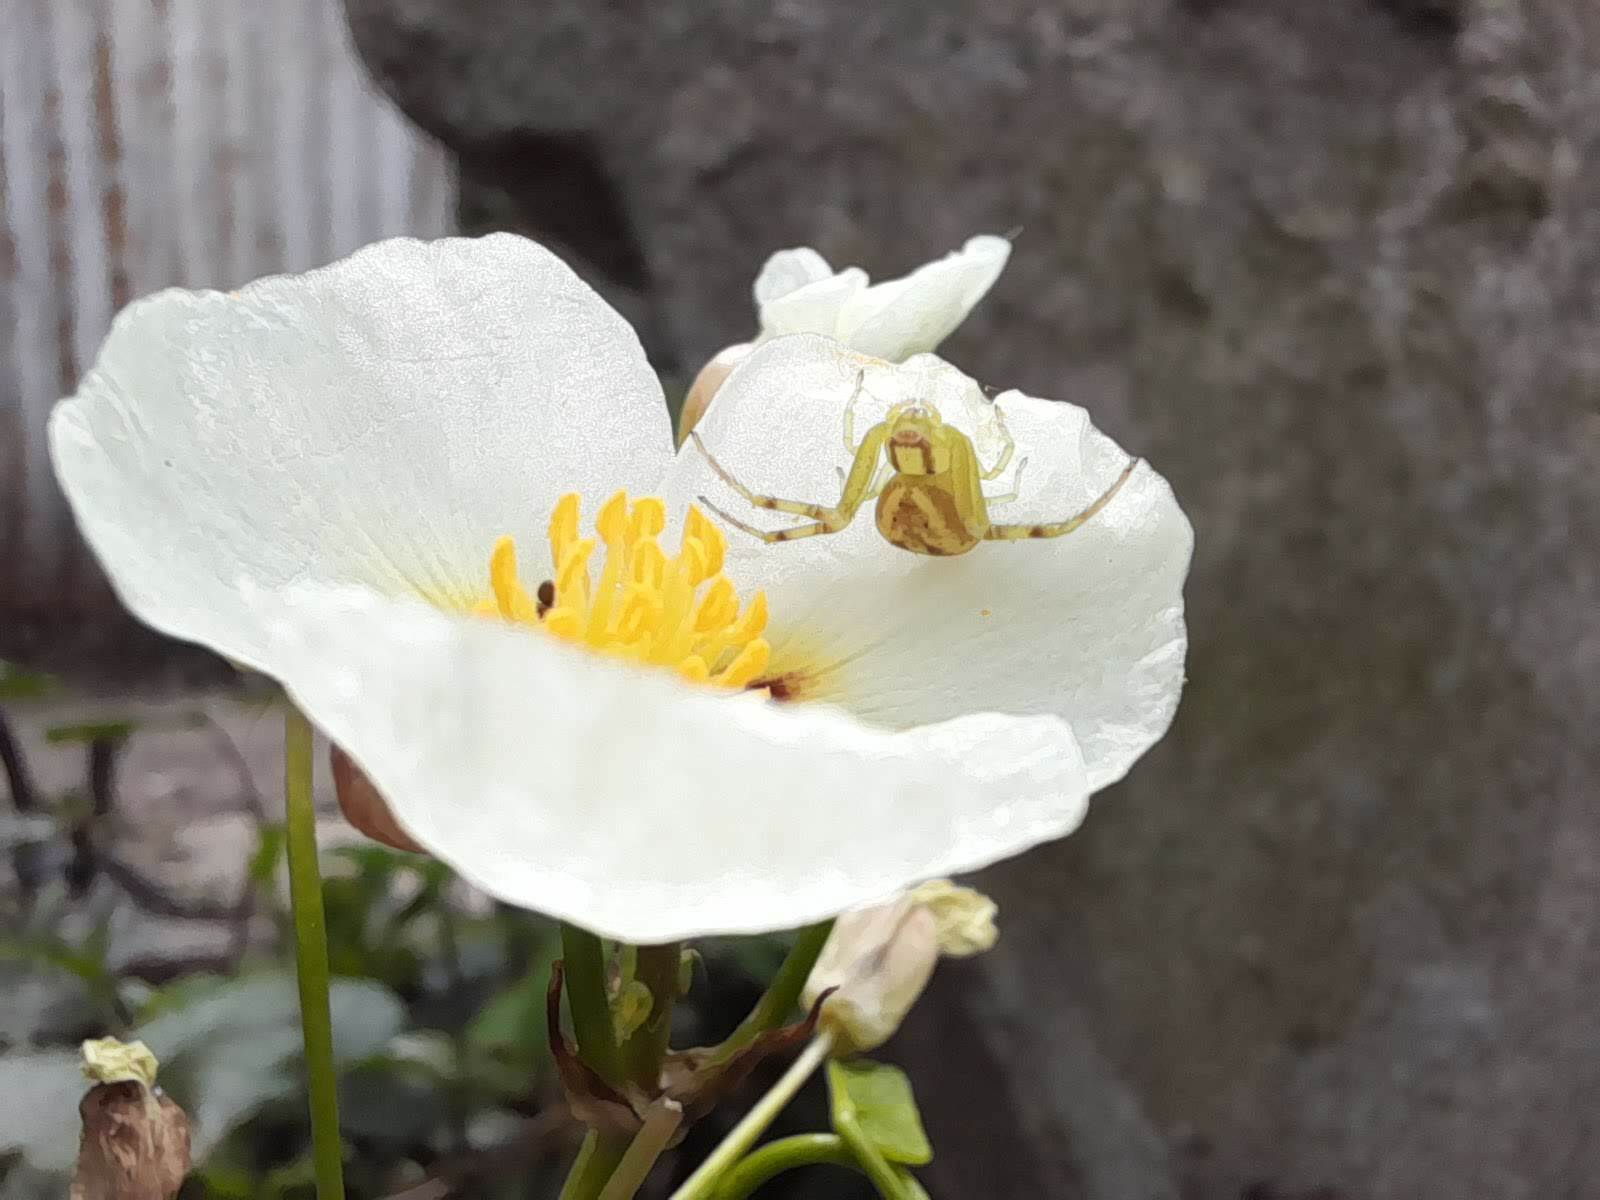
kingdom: Animalia
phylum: Arthropoda
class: Arachnida
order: Araneae
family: Thomisidae
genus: Misumenops
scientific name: Misumenops
